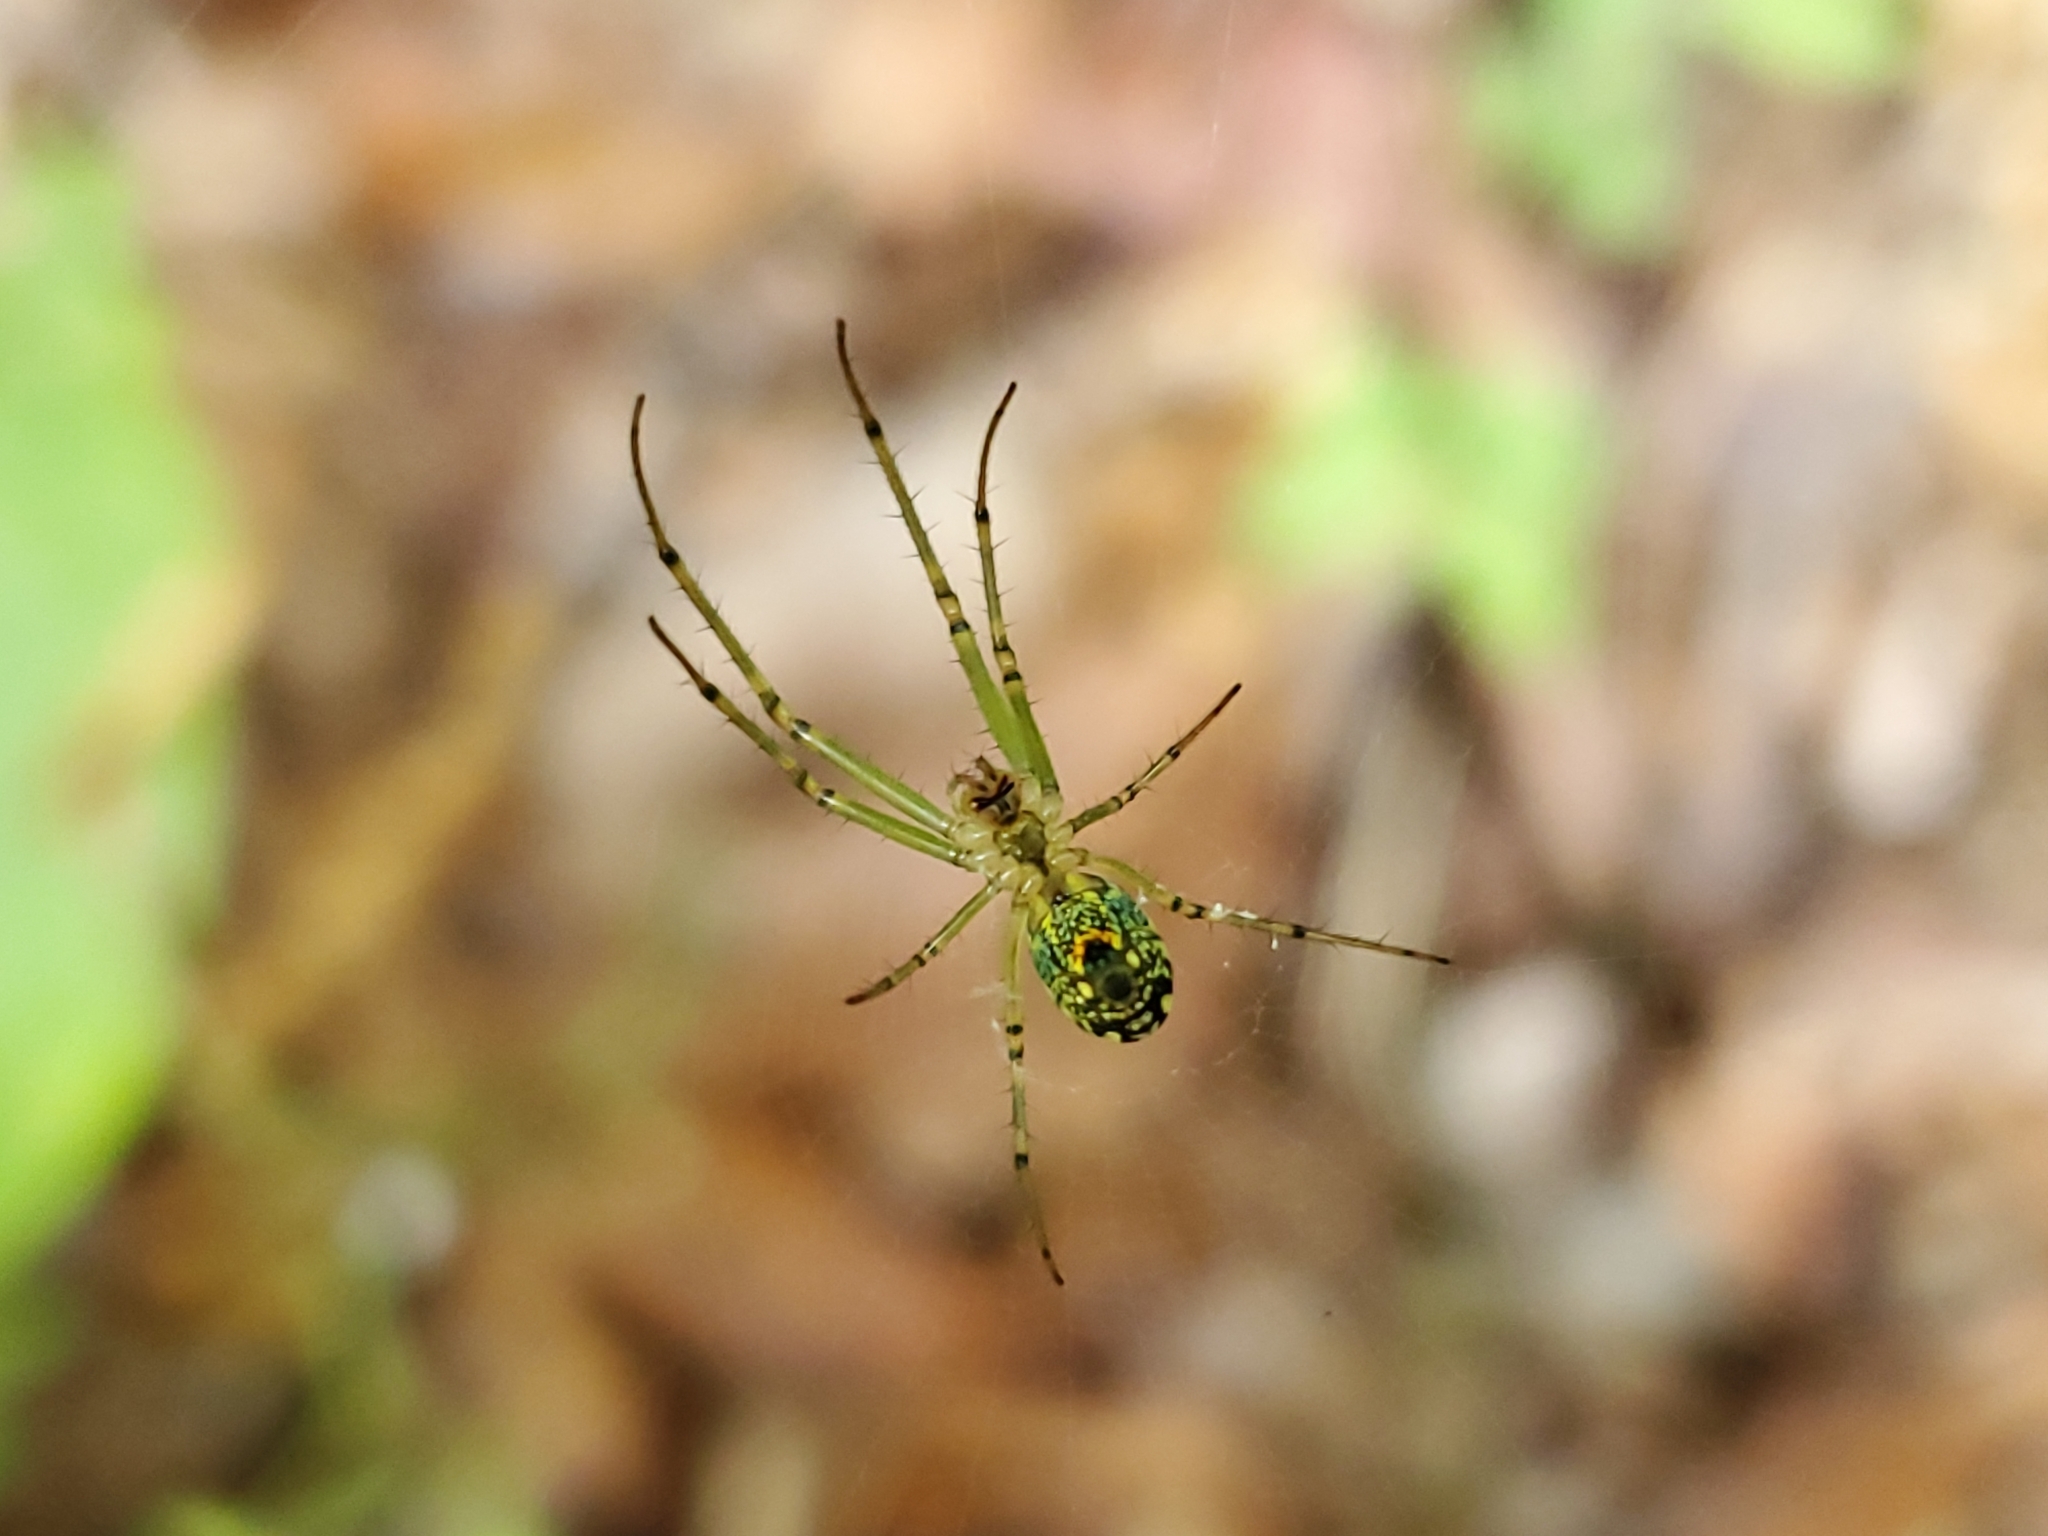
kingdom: Animalia
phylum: Arthropoda
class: Arachnida
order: Araneae
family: Tetragnathidae
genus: Leucauge
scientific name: Leucauge venusta
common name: Longjawed orb weavers
